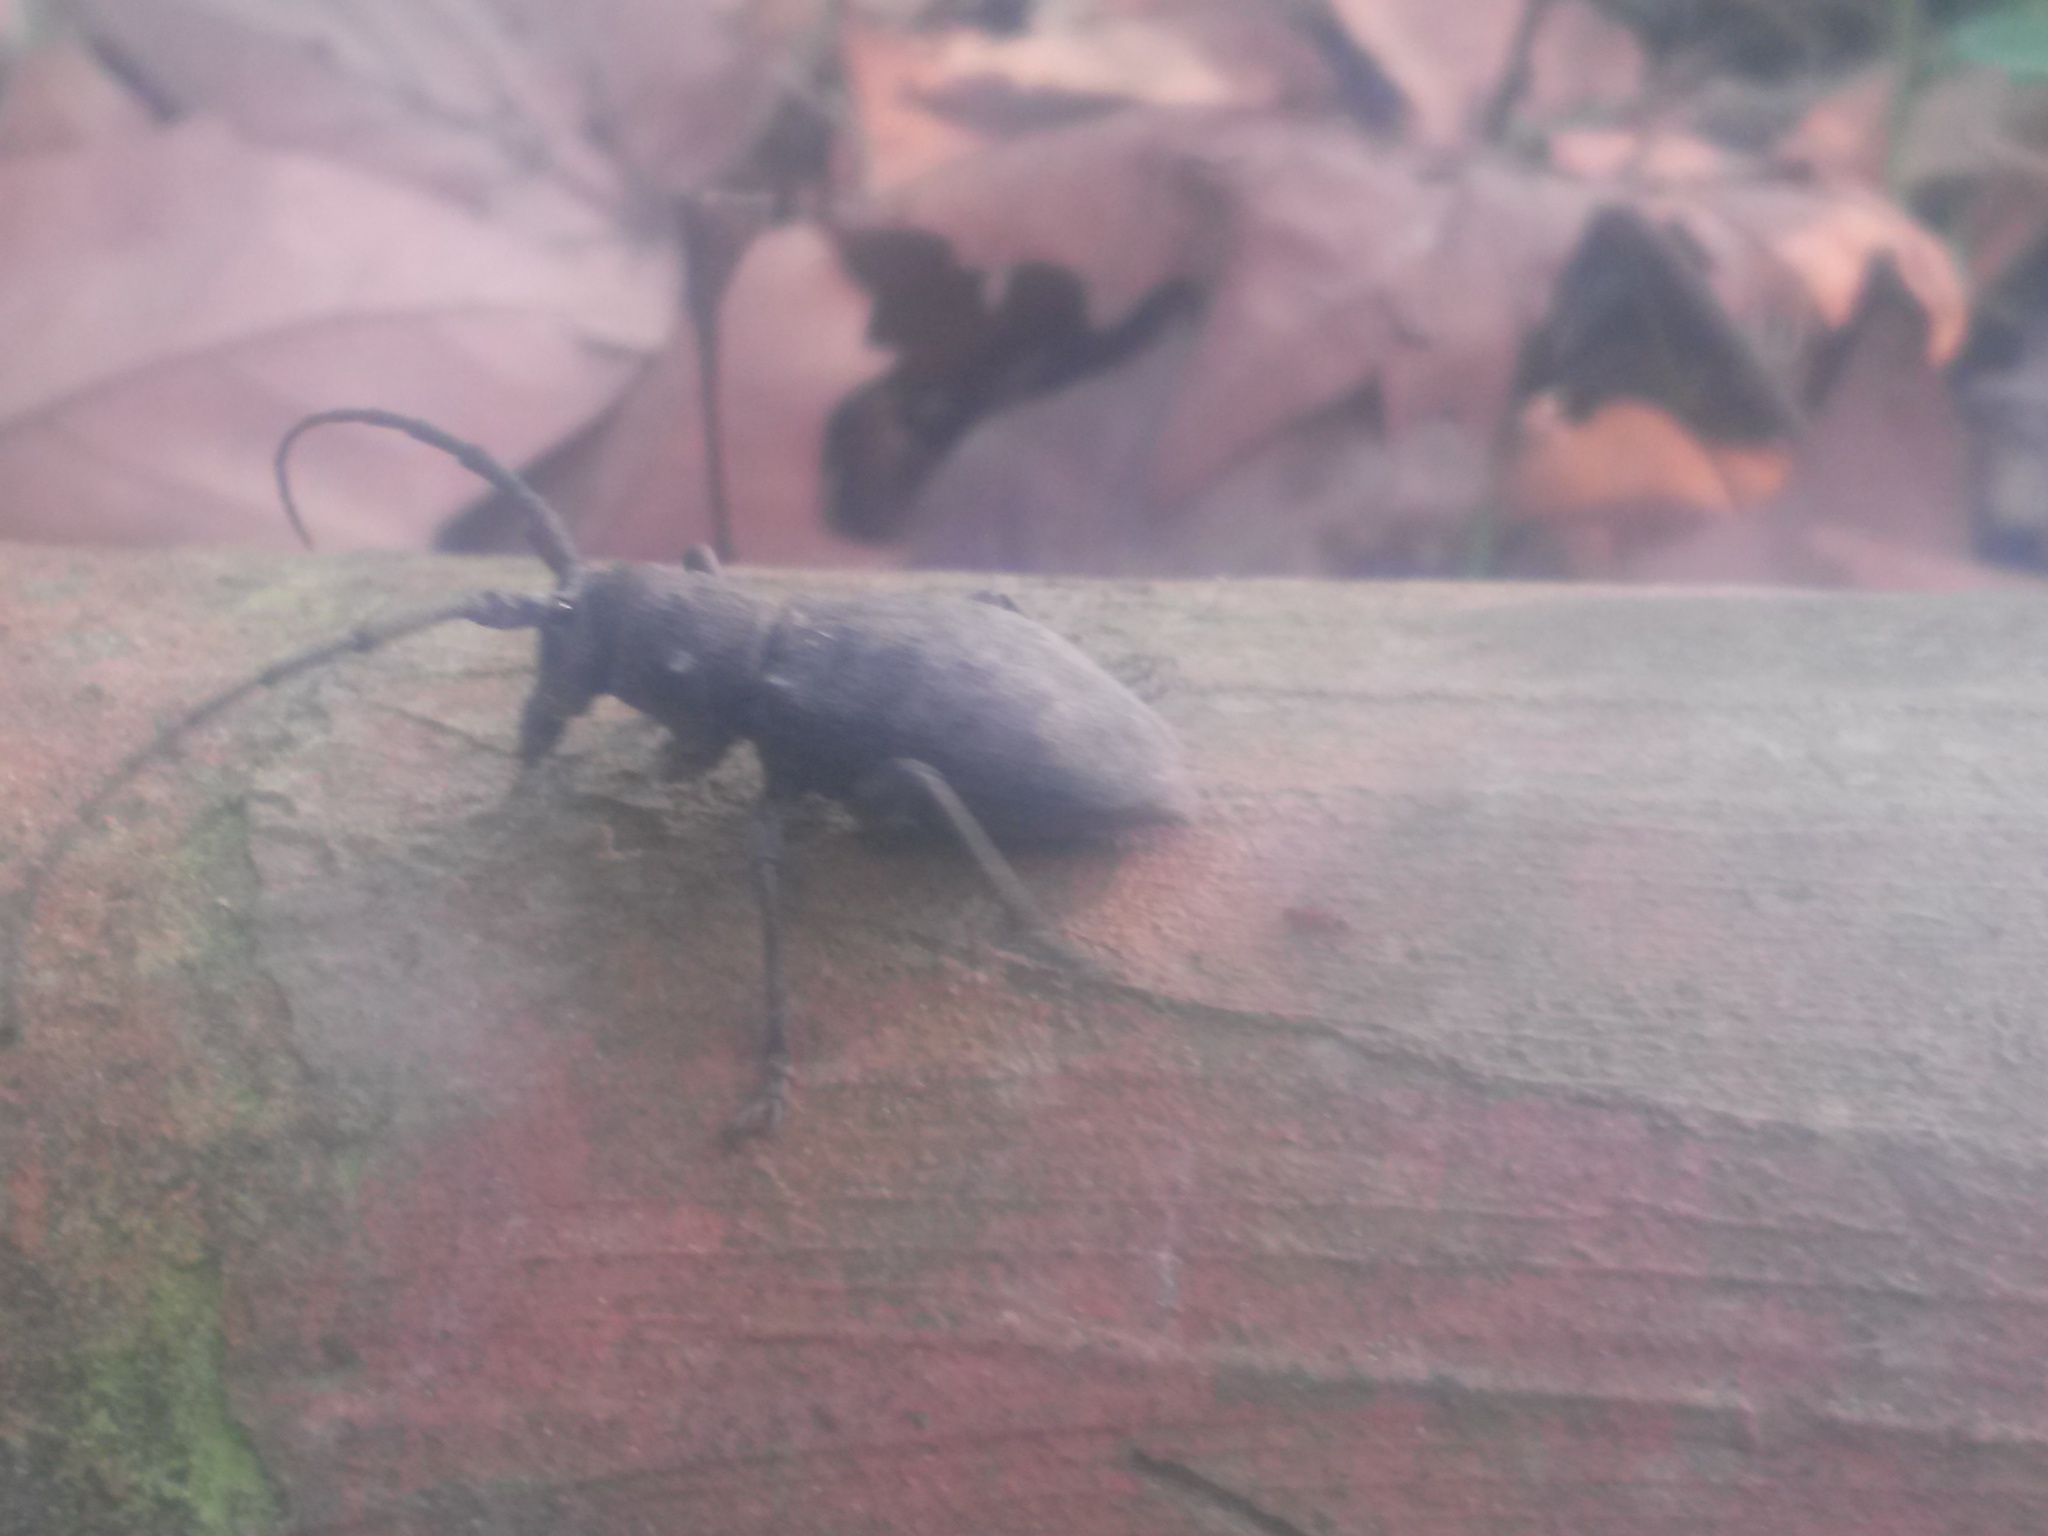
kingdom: Animalia
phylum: Arthropoda
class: Insecta
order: Coleoptera
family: Cerambycidae
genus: Morimus
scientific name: Morimus asper
